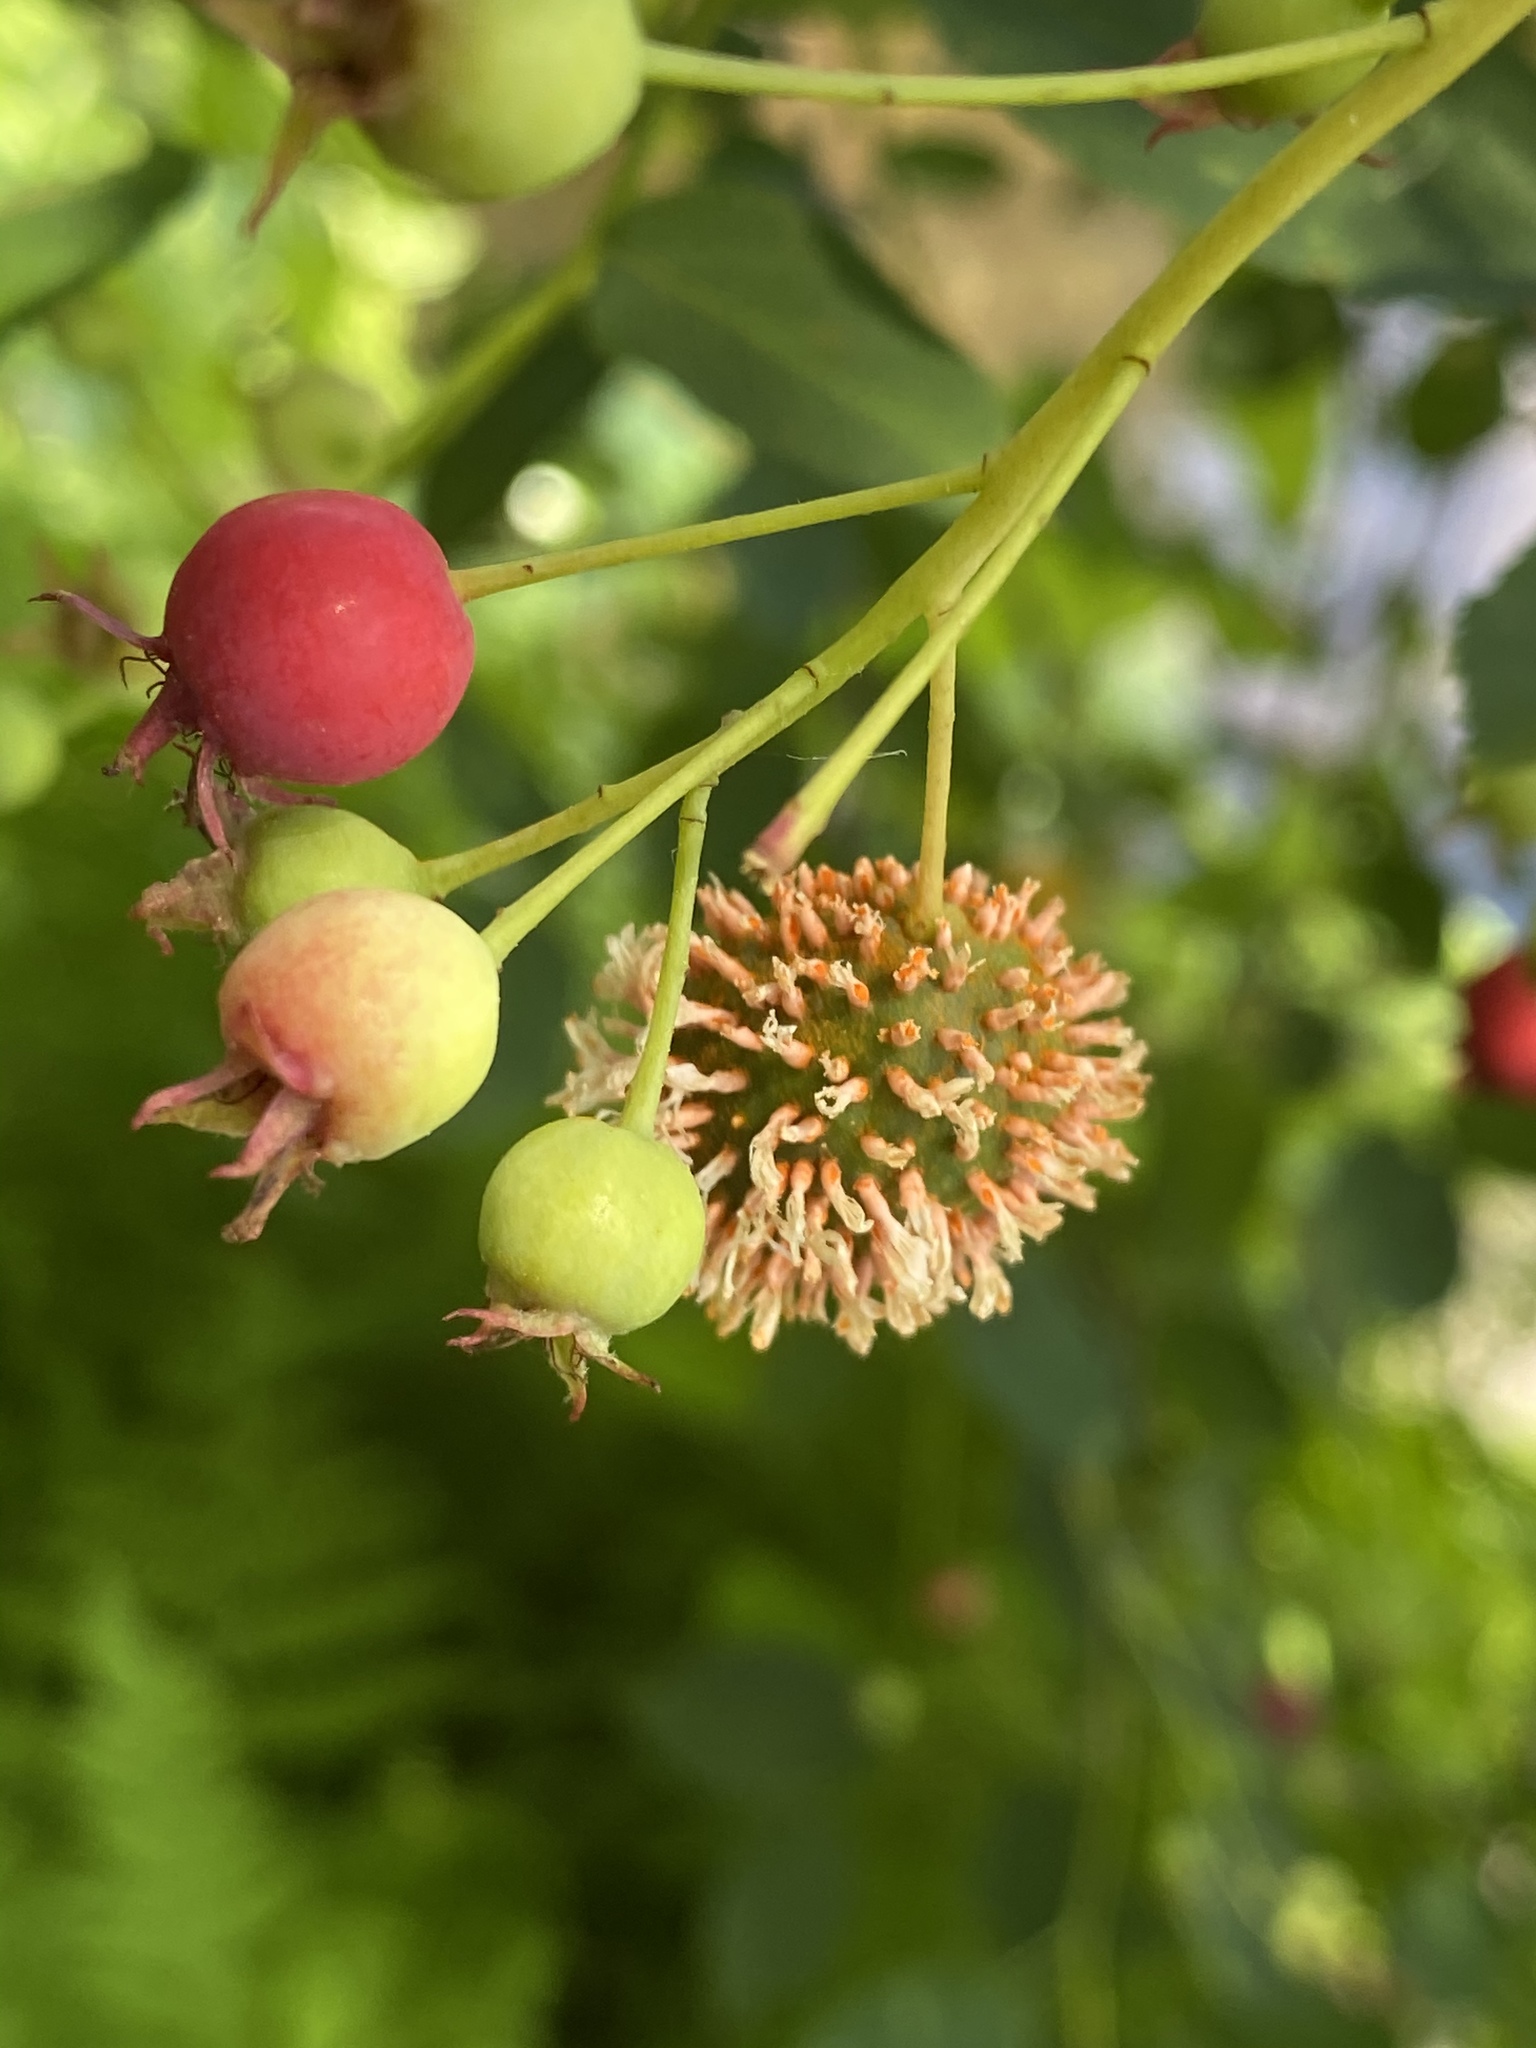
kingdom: Fungi
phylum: Basidiomycota
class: Pucciniomycetes
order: Pucciniales
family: Gymnosporangiaceae
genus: Gymnosporangium
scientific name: Gymnosporangium clavipes
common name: Quince rust
